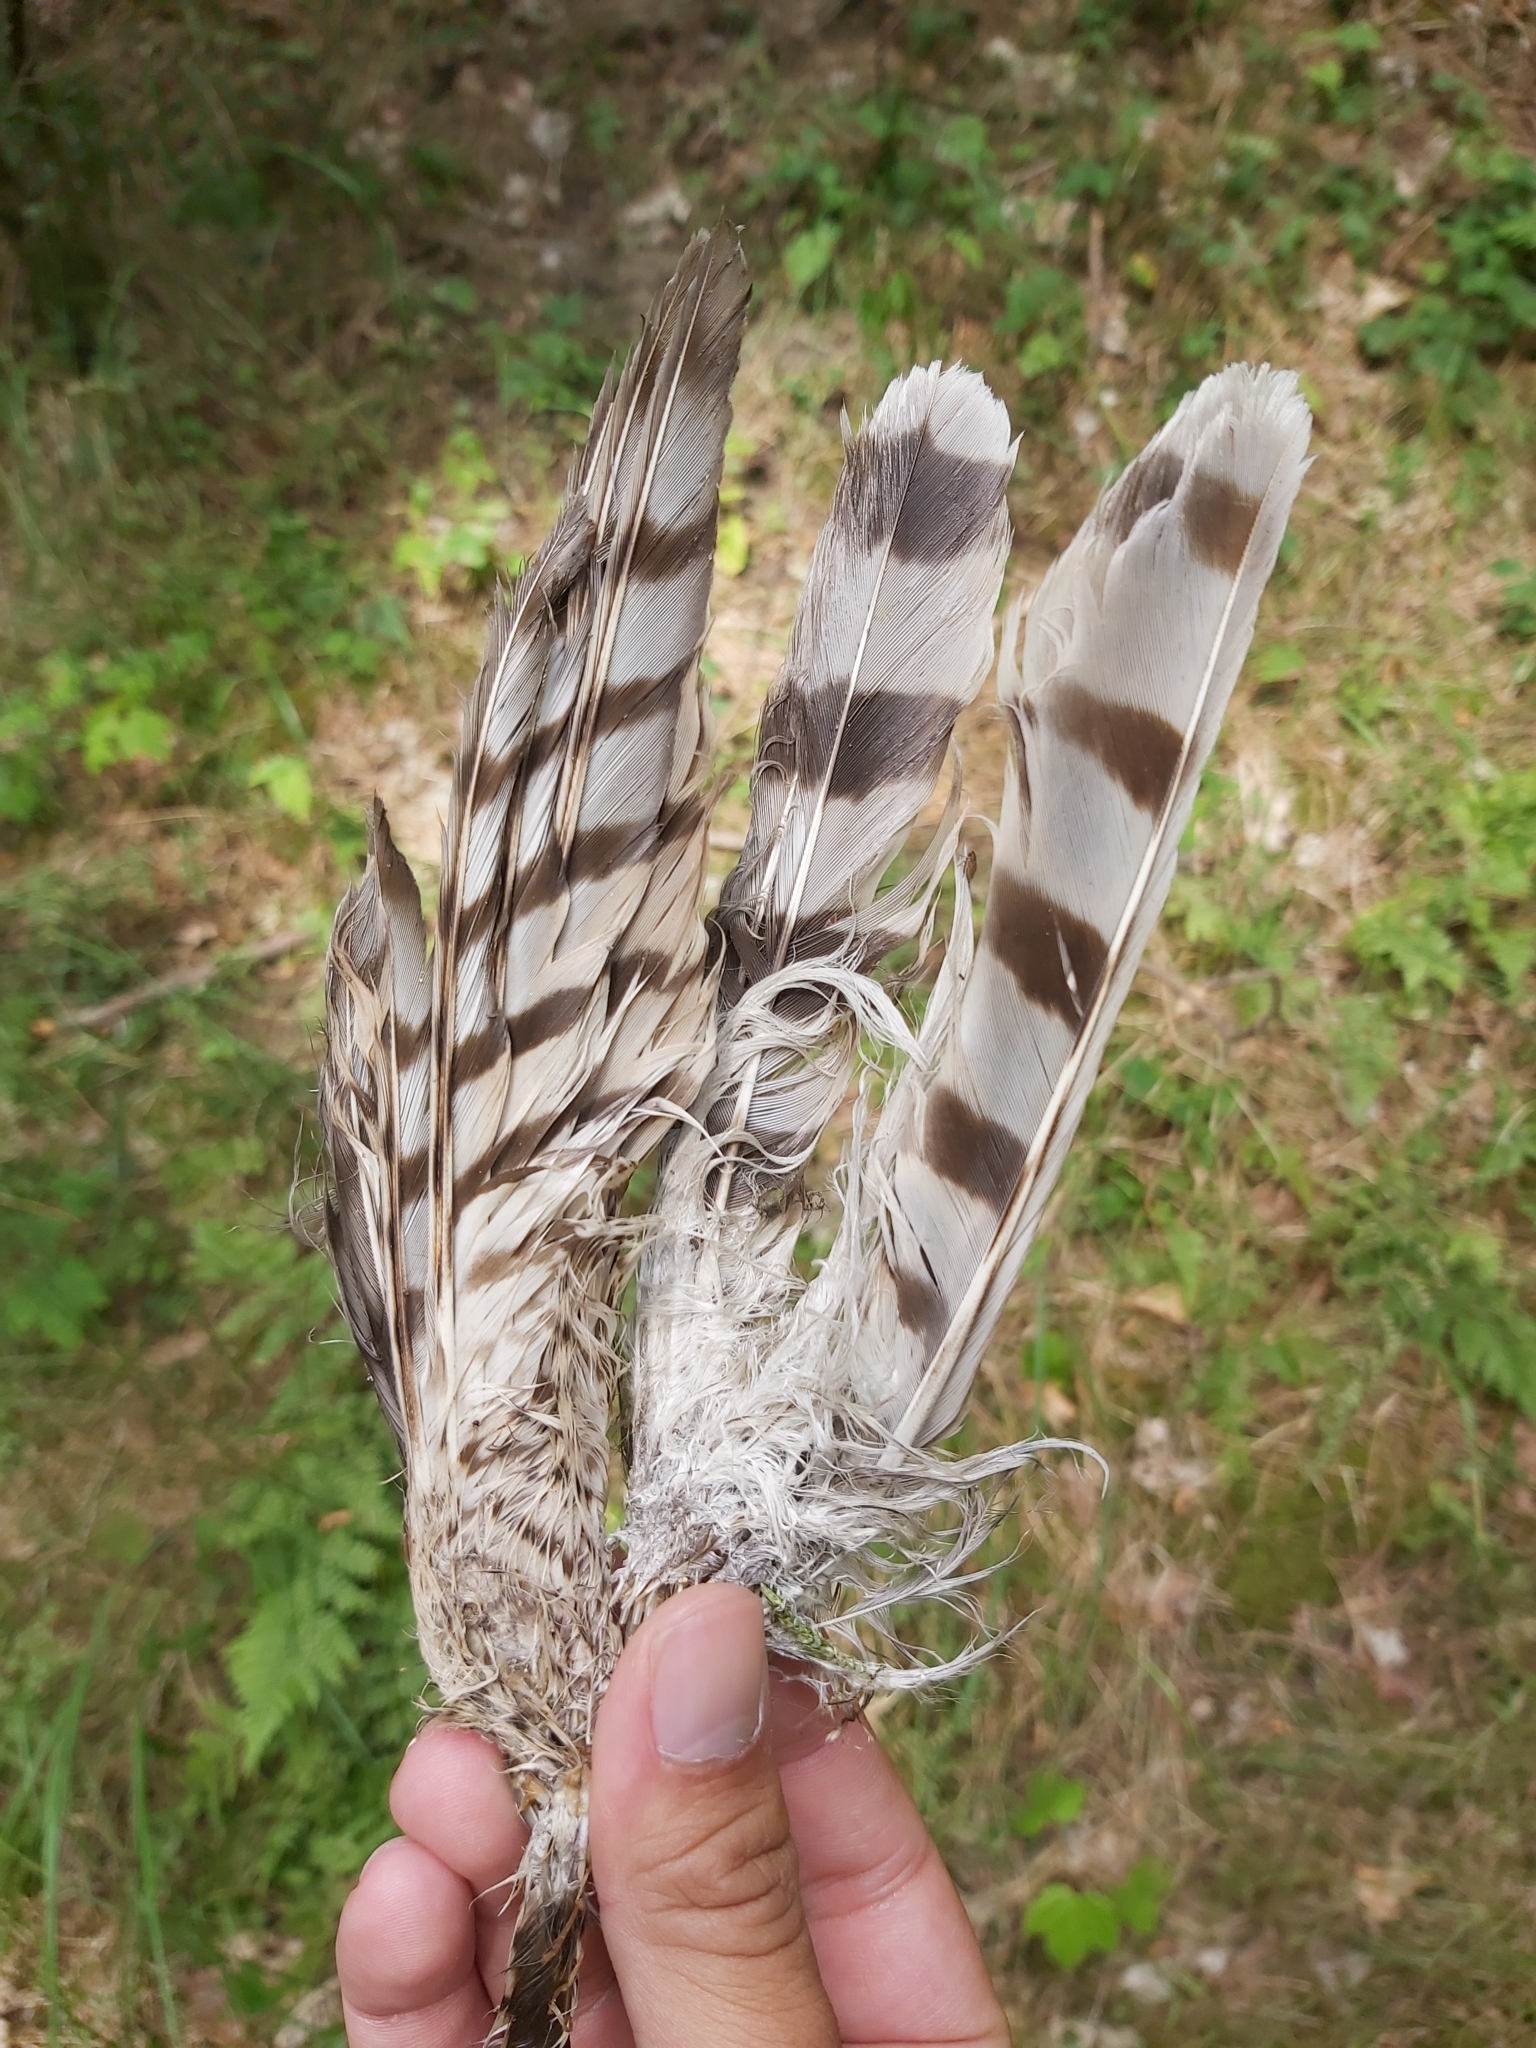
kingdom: Animalia
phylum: Chordata
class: Aves
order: Accipitriformes
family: Accipitridae
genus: Accipiter
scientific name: Accipiter nisus
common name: Eurasian sparrowhawk
